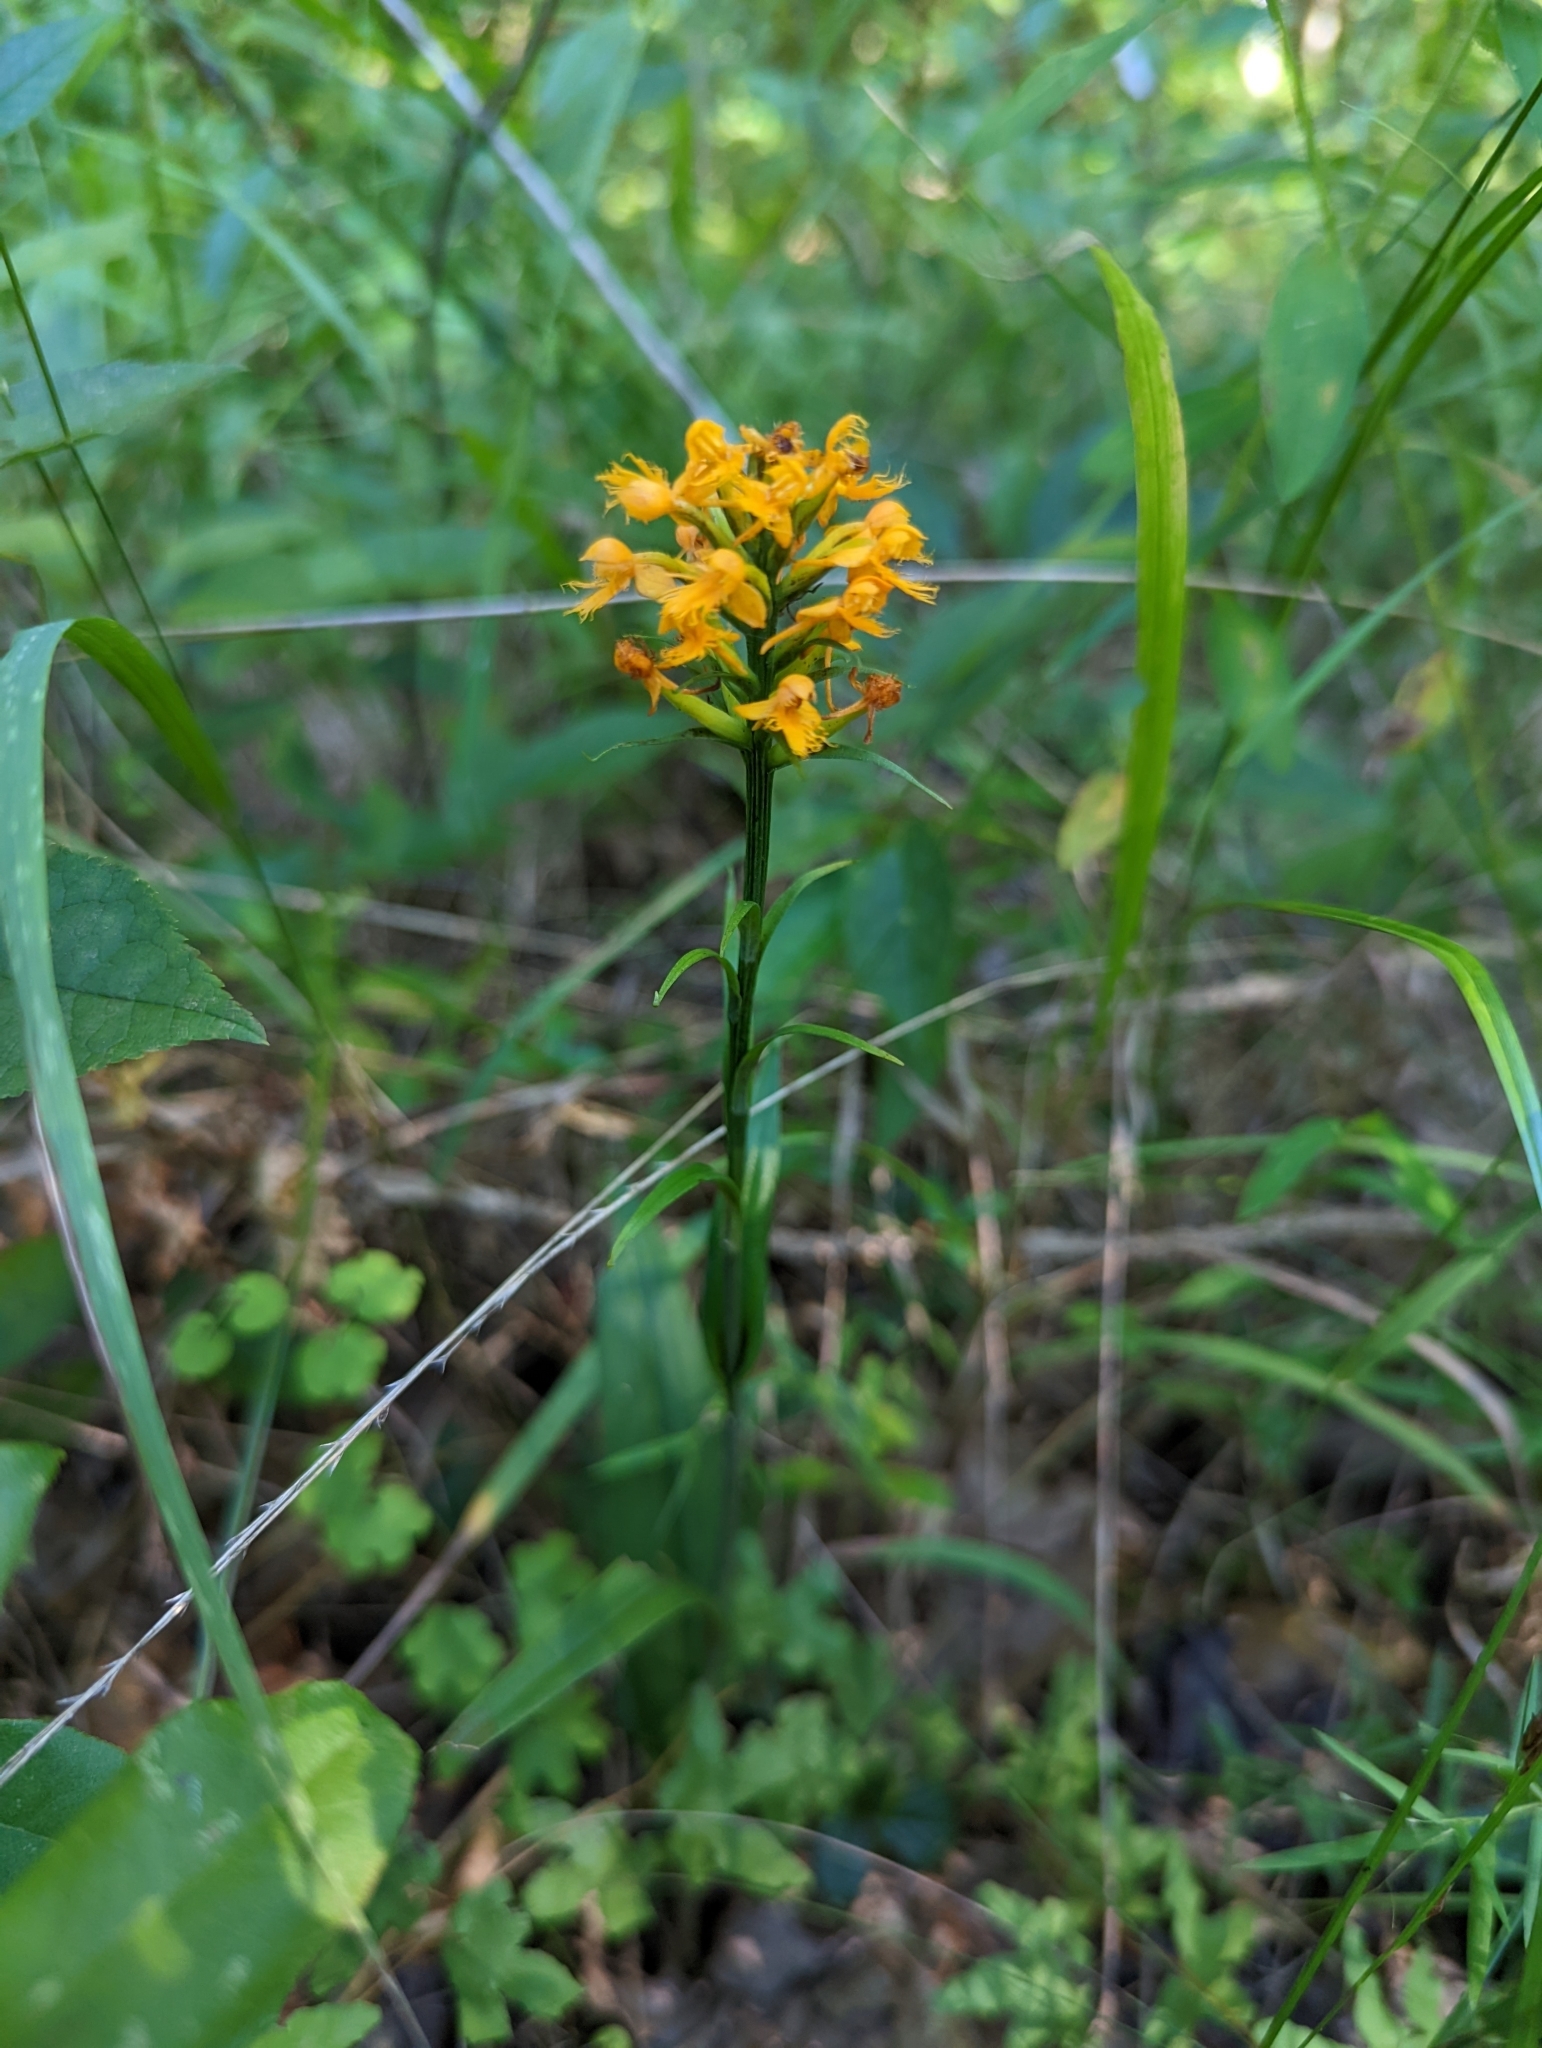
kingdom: Plantae
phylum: Tracheophyta
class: Liliopsida
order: Asparagales
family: Orchidaceae
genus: Platanthera
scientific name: Platanthera cristata
